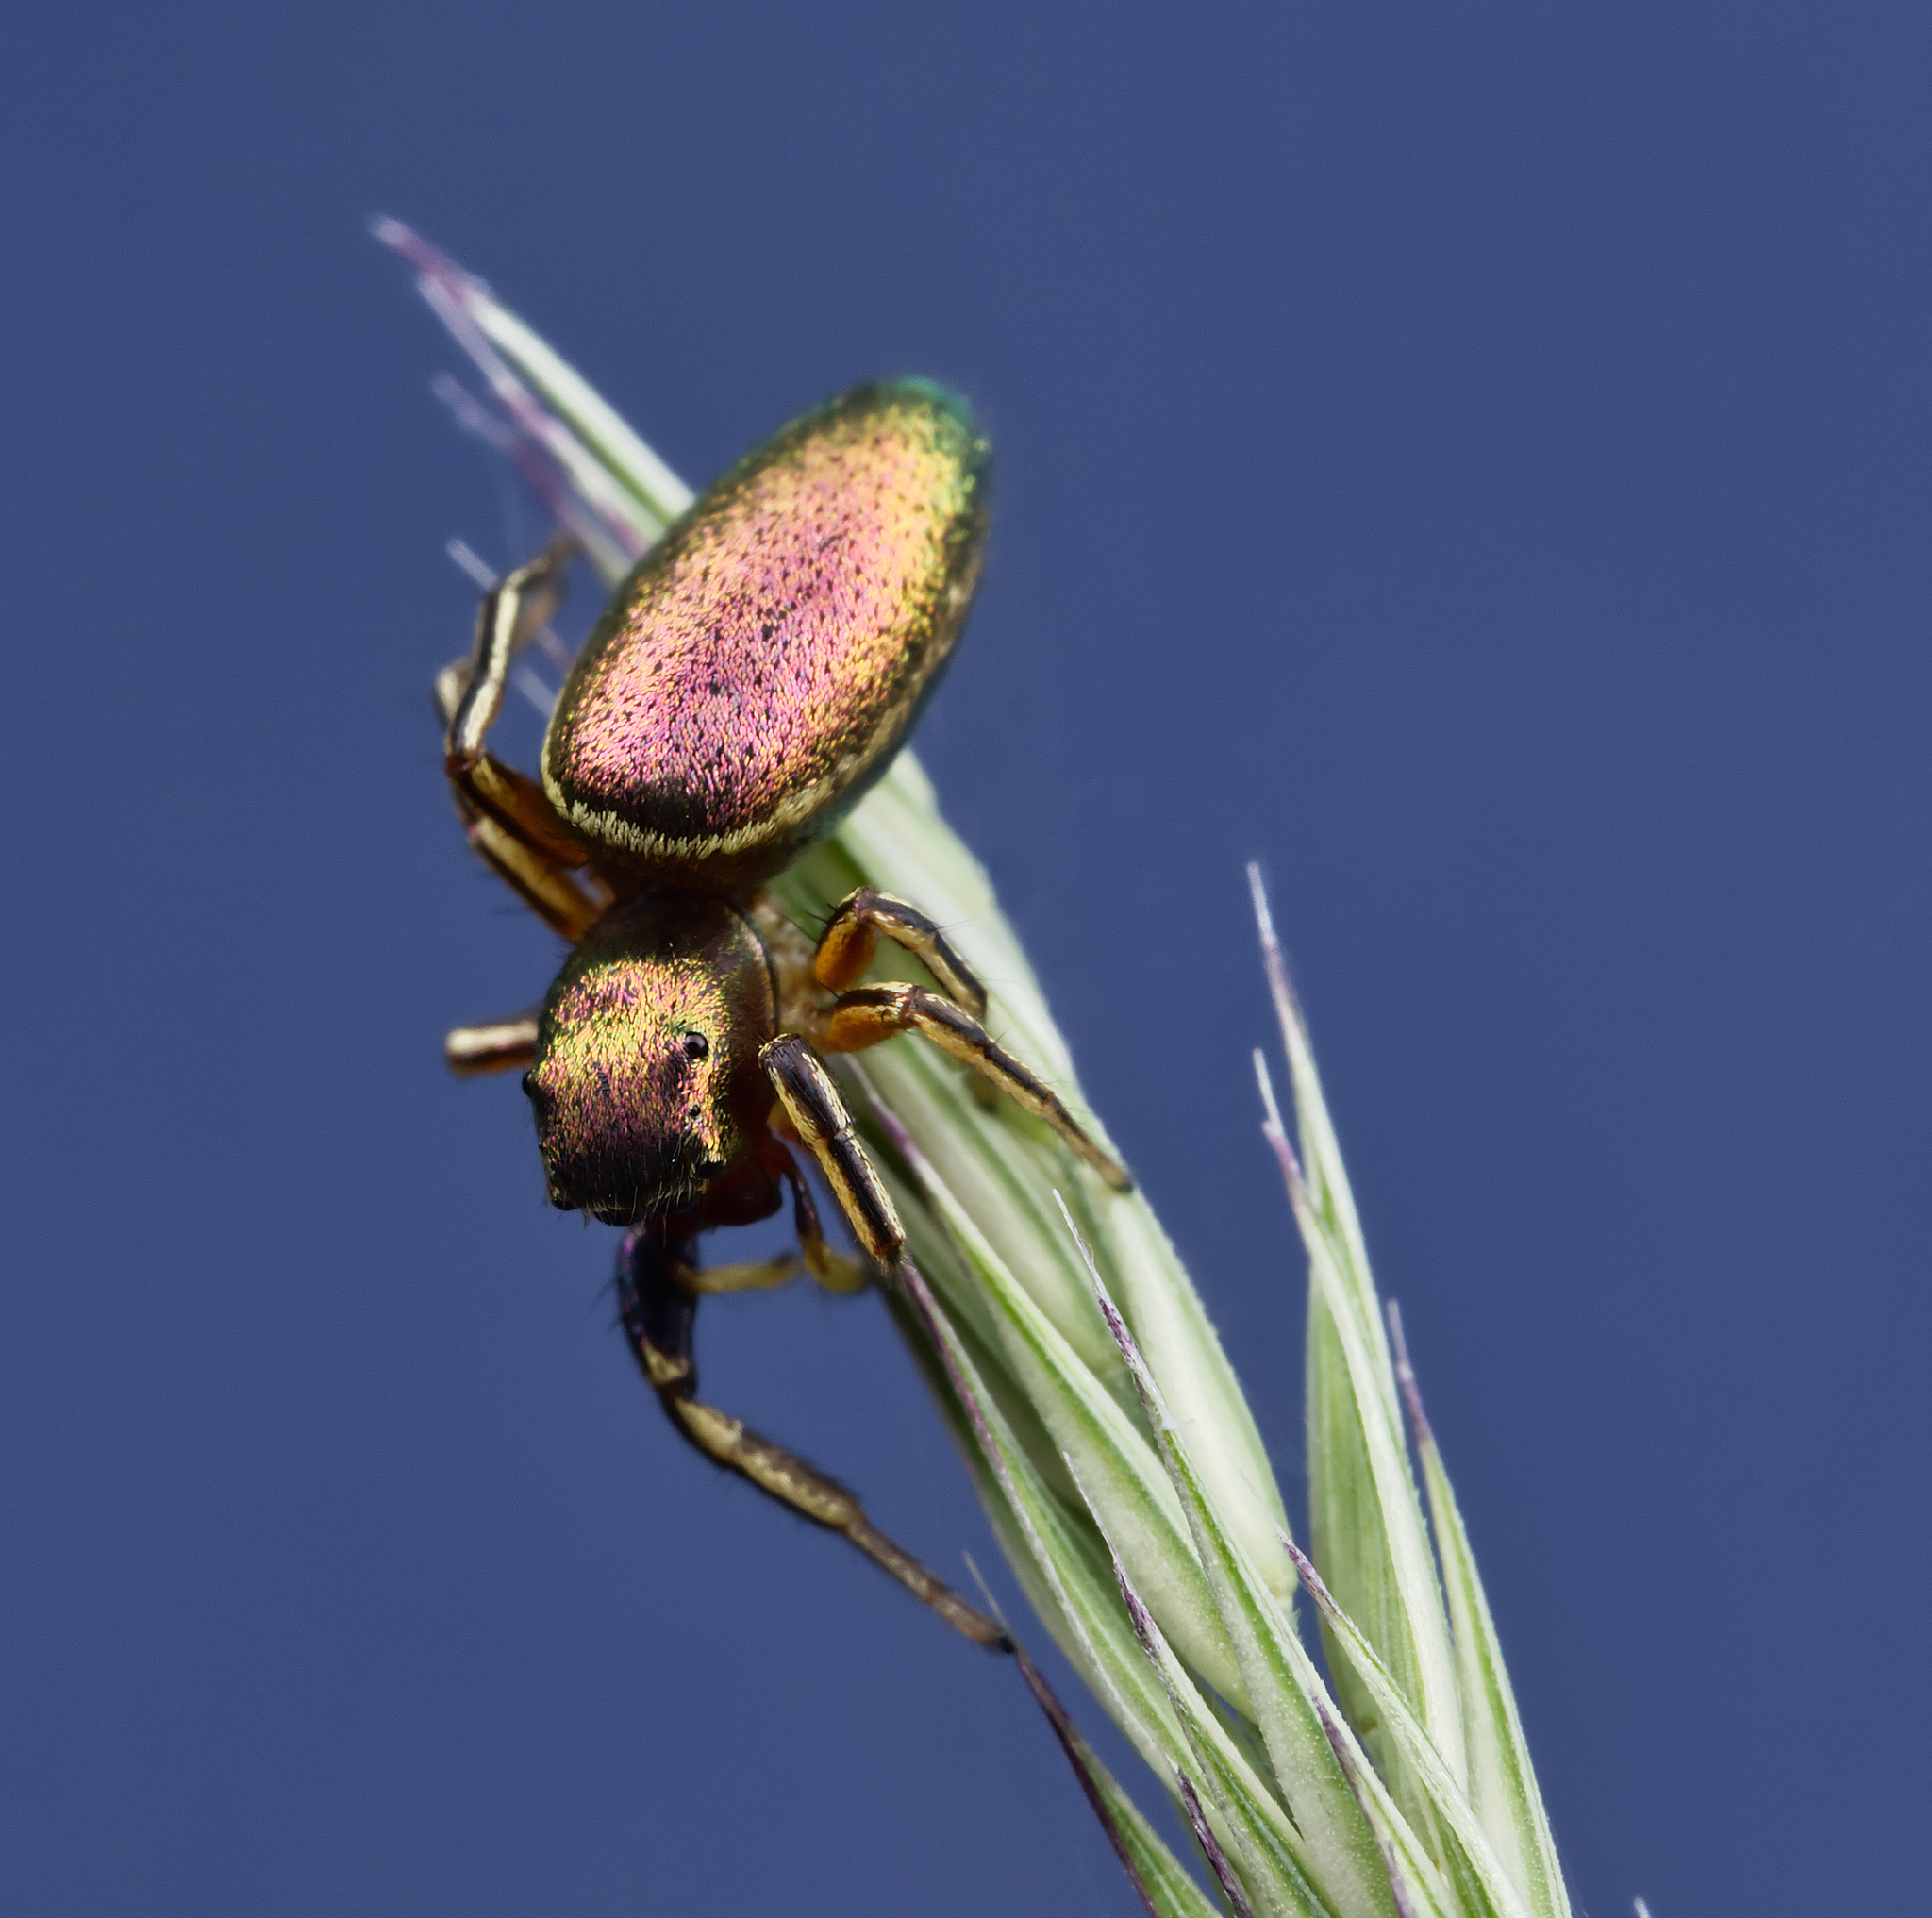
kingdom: Animalia
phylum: Arthropoda
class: Arachnida
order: Araneae
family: Salticidae
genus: Tutelina
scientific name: Tutelina elegans
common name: Thin-spined jumping spider
